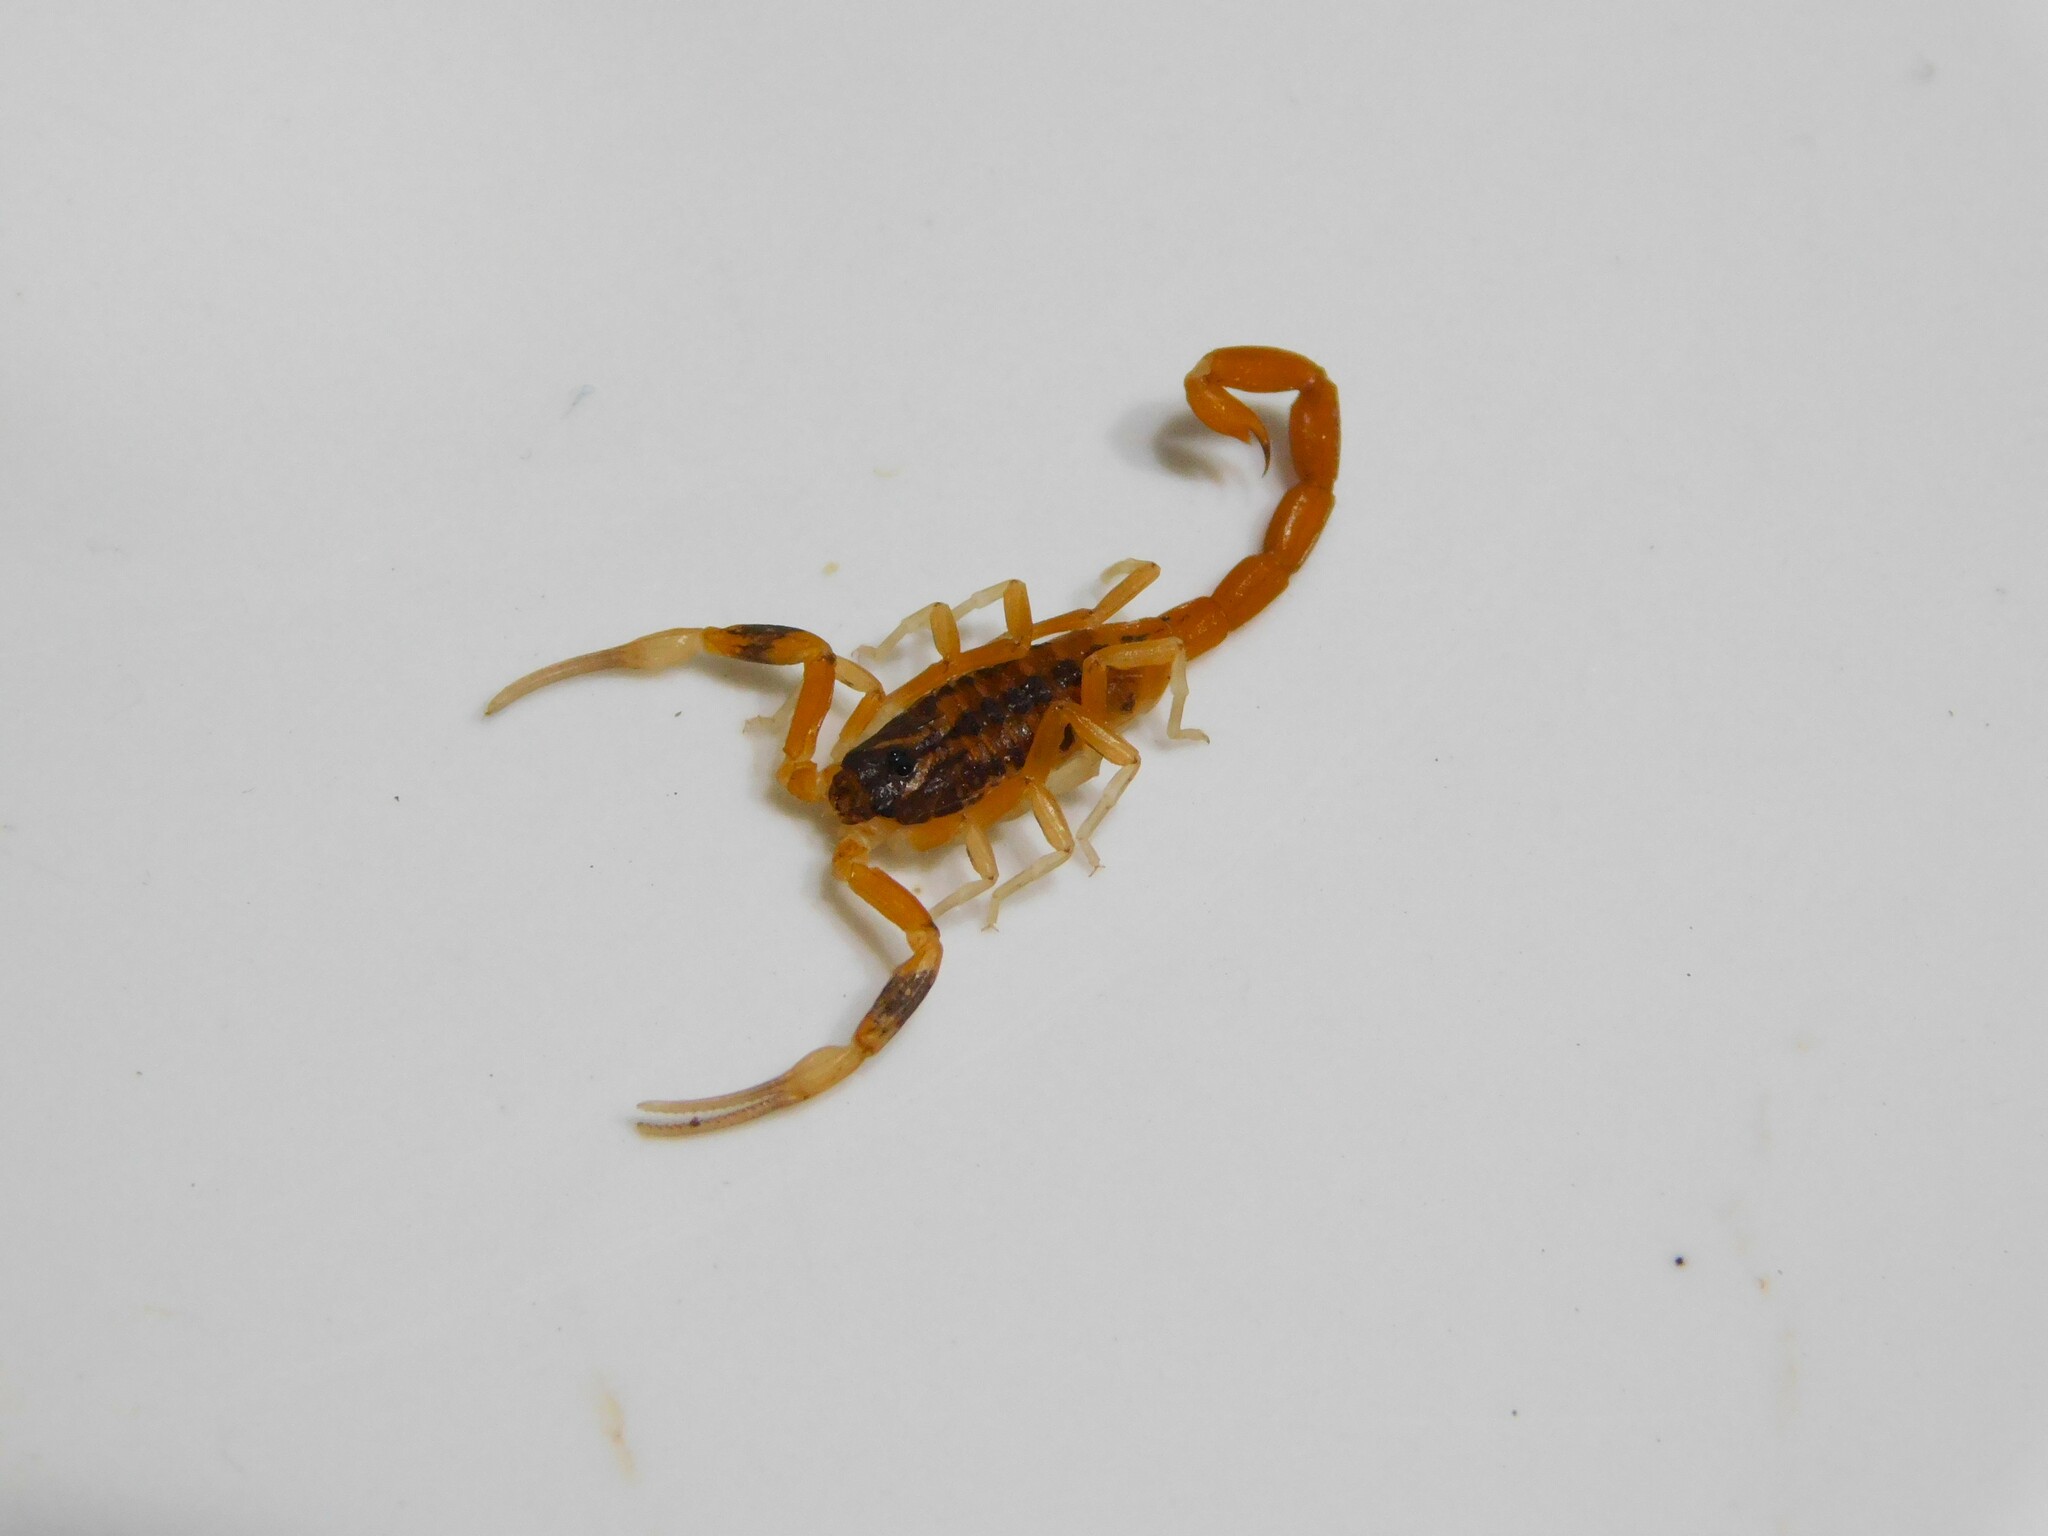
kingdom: Animalia
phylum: Arthropoda
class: Arachnida
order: Scorpiones
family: Buthidae
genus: Tityus
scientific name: Tityus uruguayensis
